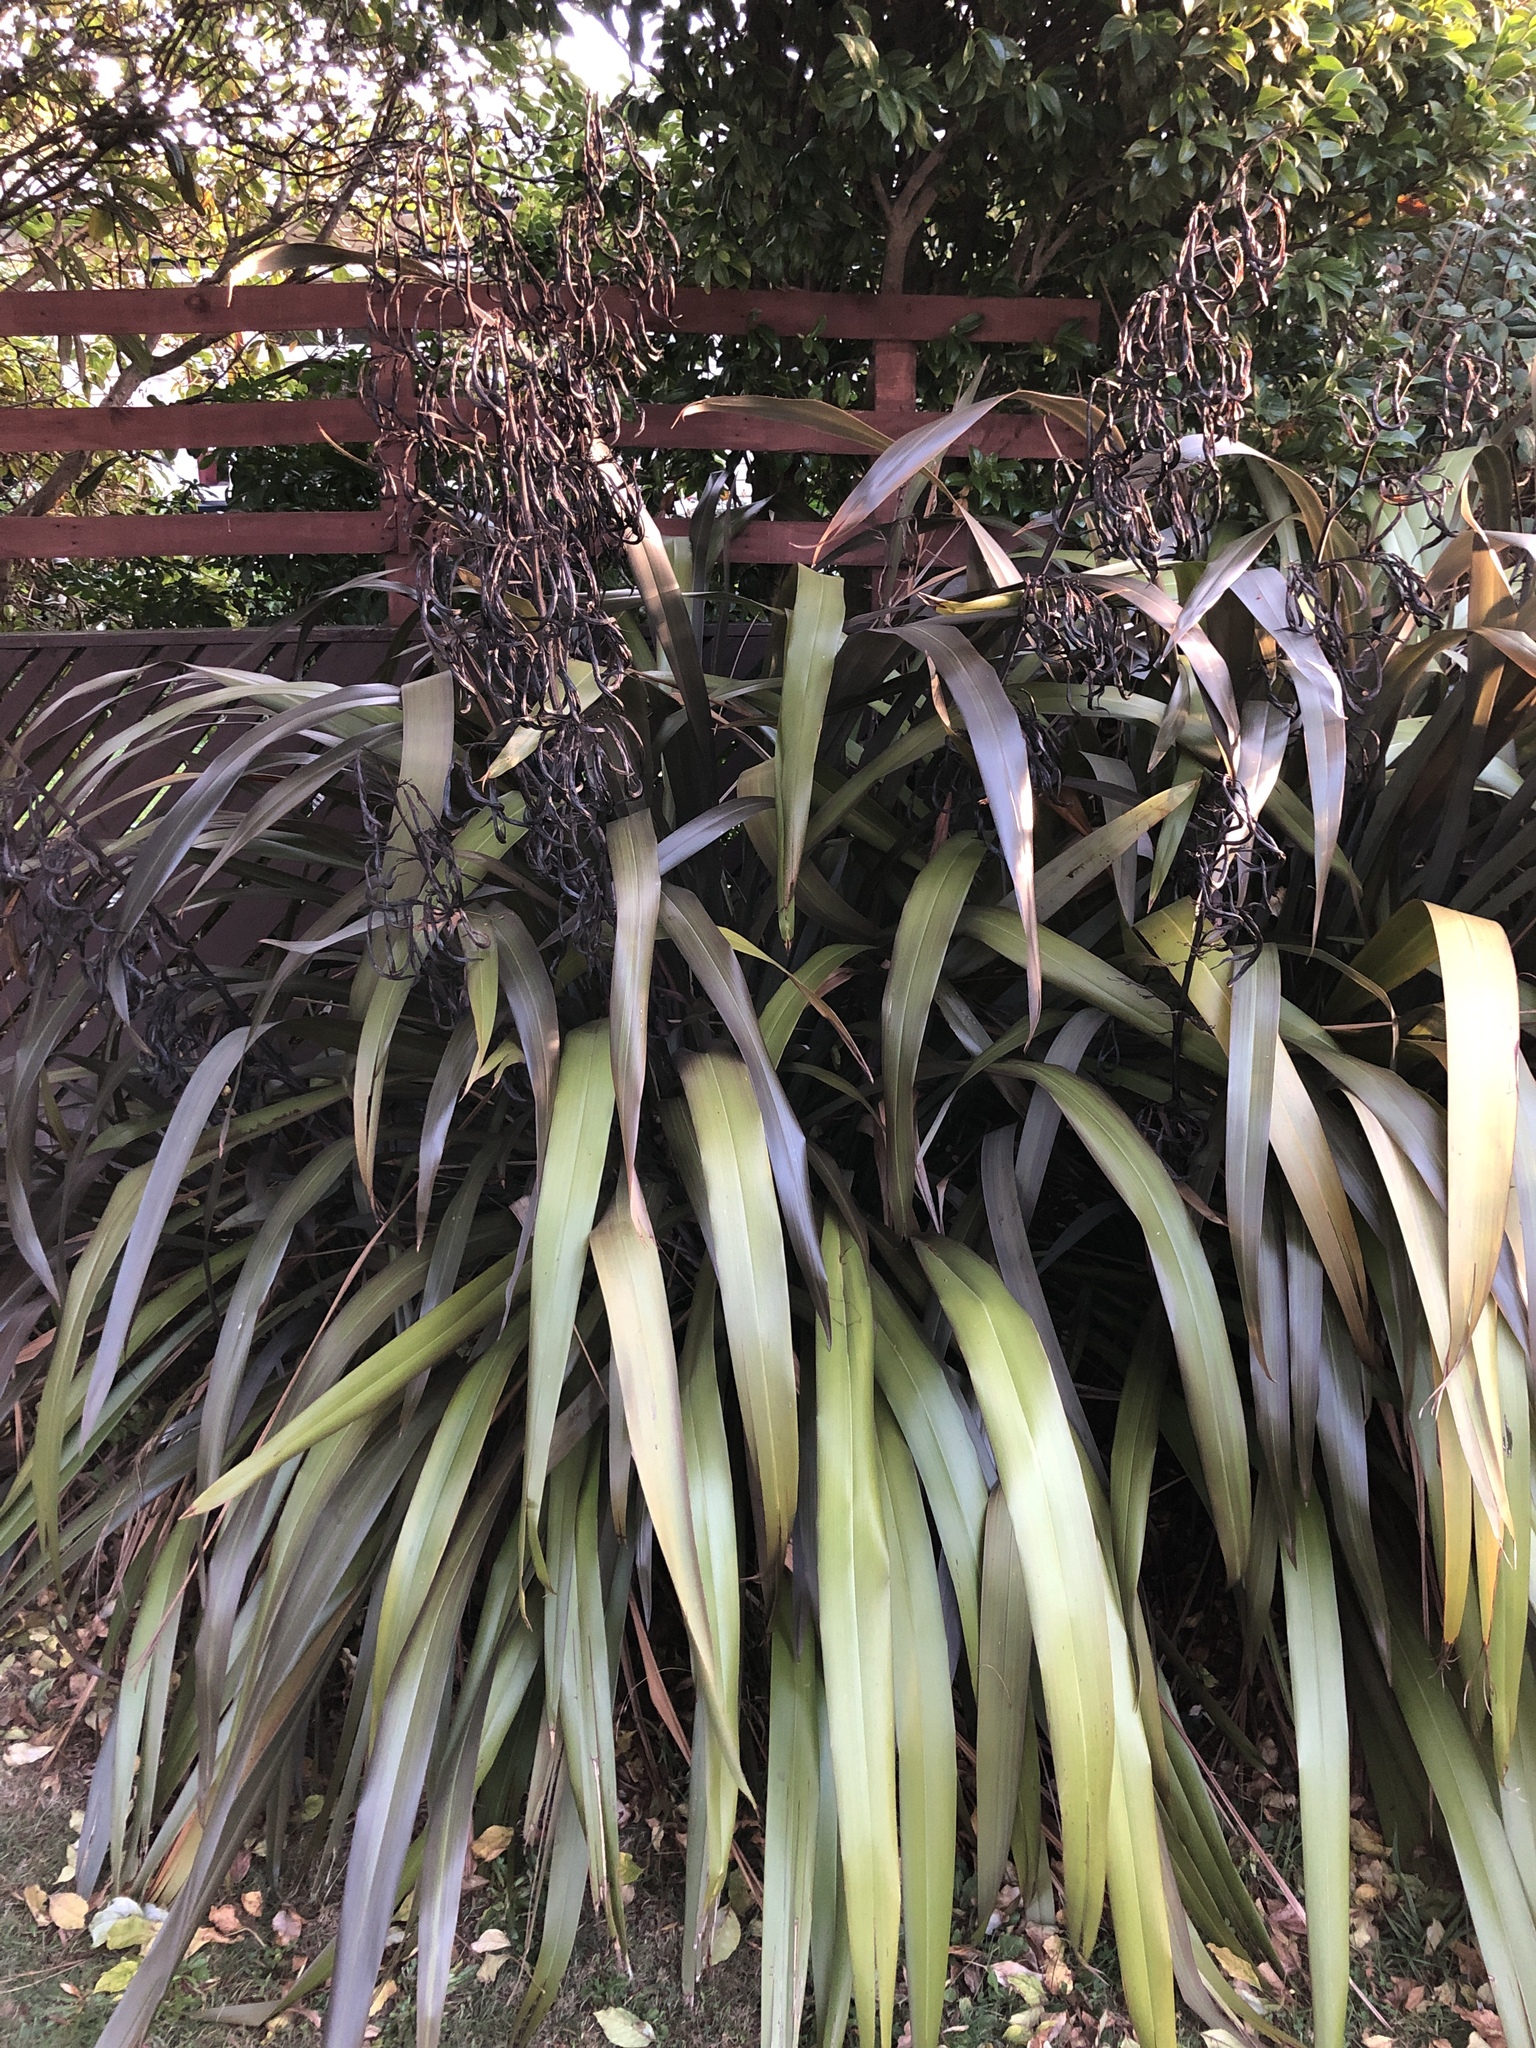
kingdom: Plantae
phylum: Tracheophyta
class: Liliopsida
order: Asparagales
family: Asphodelaceae
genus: Phormium
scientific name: Phormium colensoi
